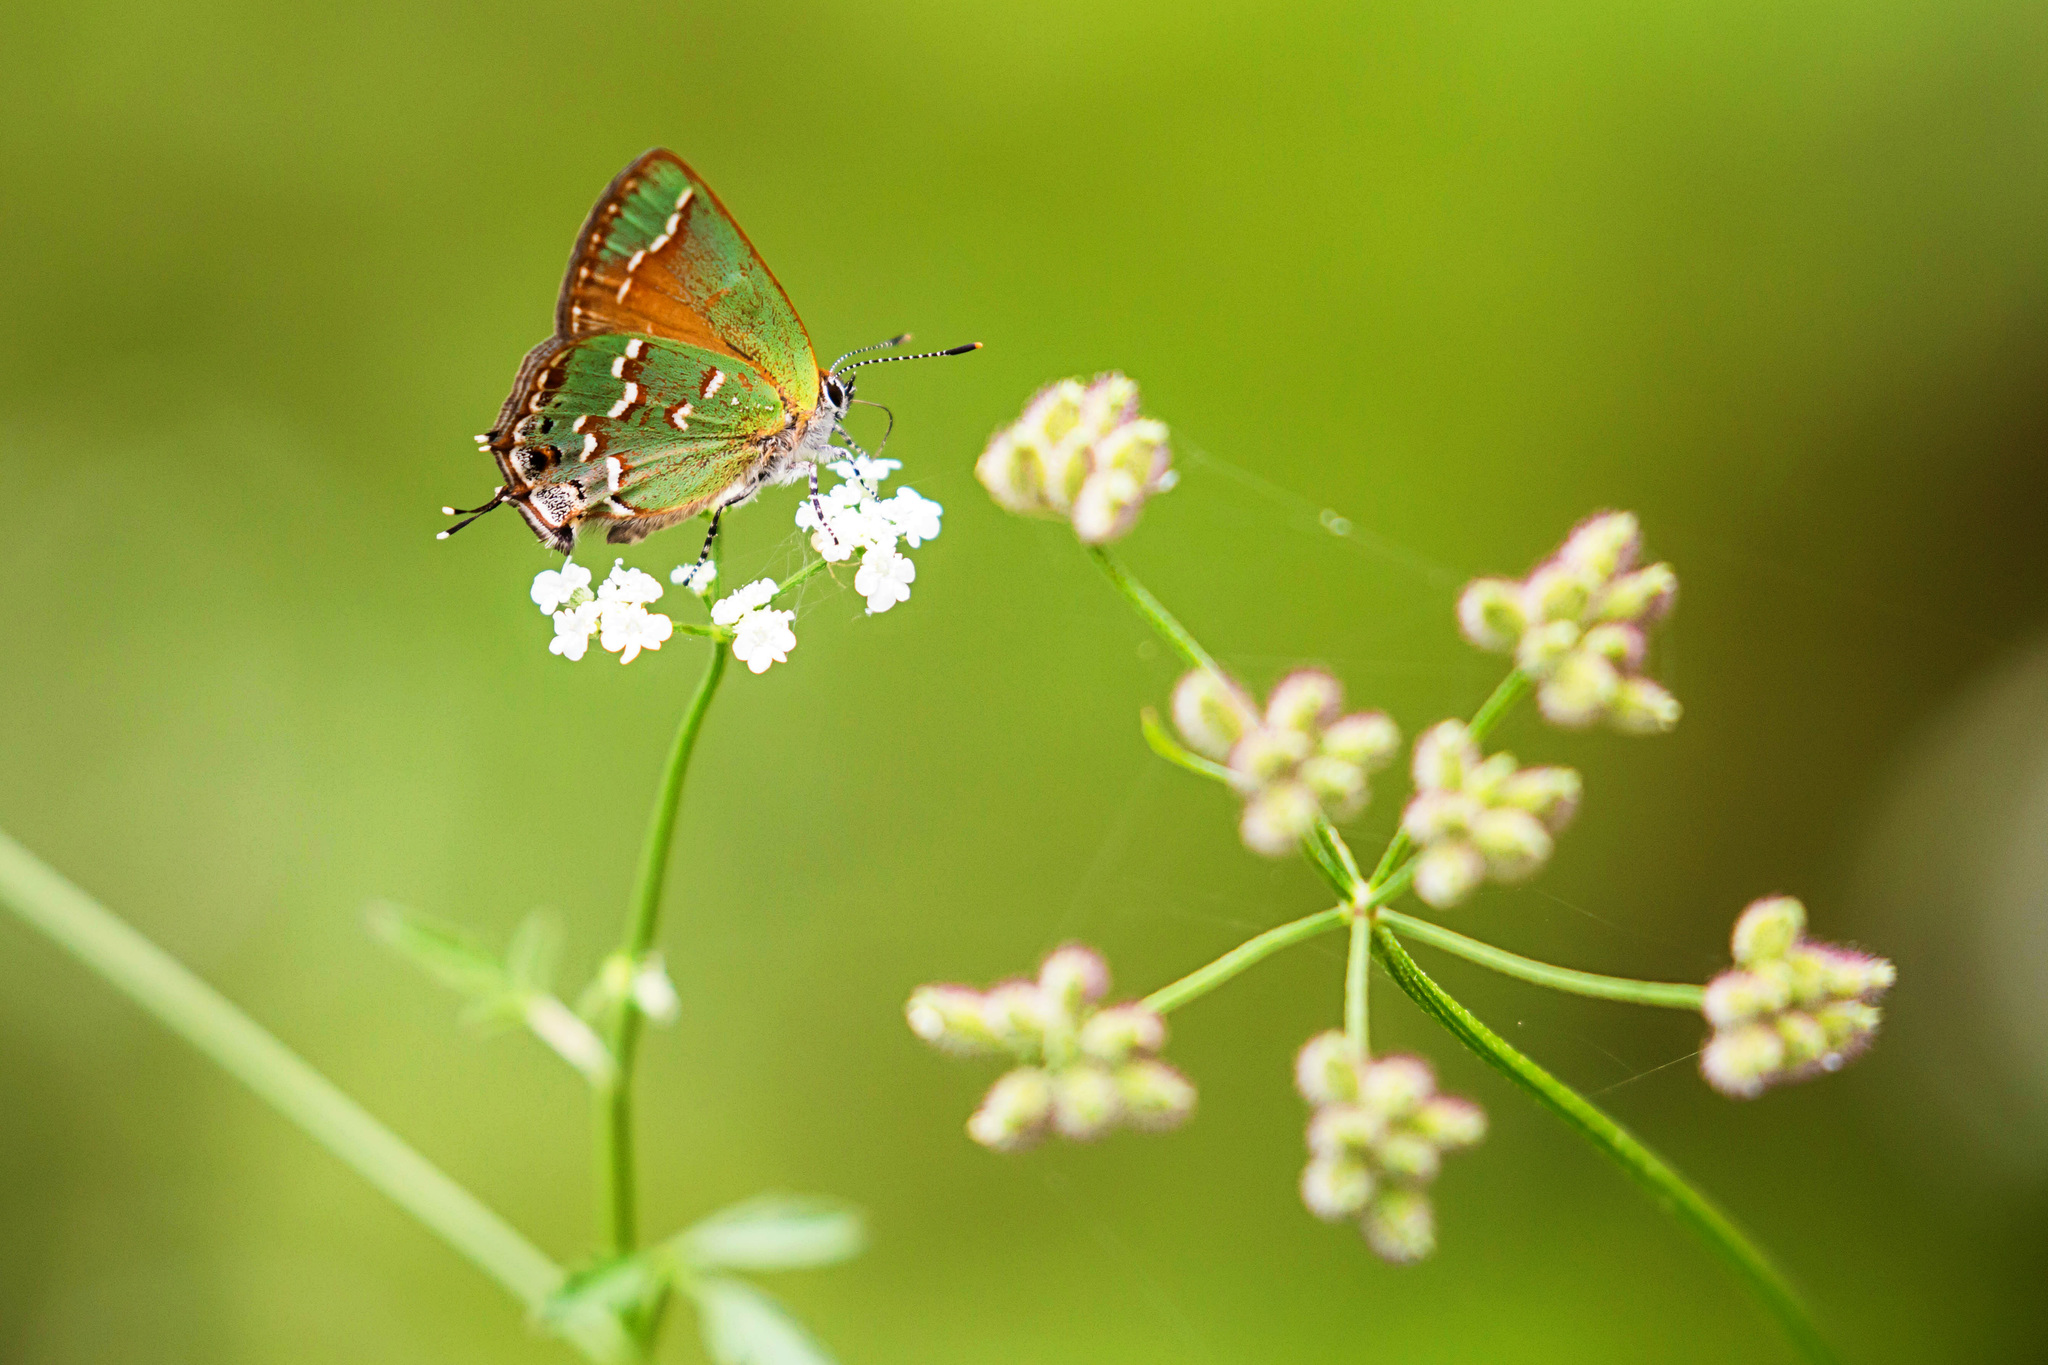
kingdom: Animalia
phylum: Arthropoda
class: Insecta
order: Lepidoptera
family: Lycaenidae
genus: Mitoura
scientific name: Mitoura gryneus
